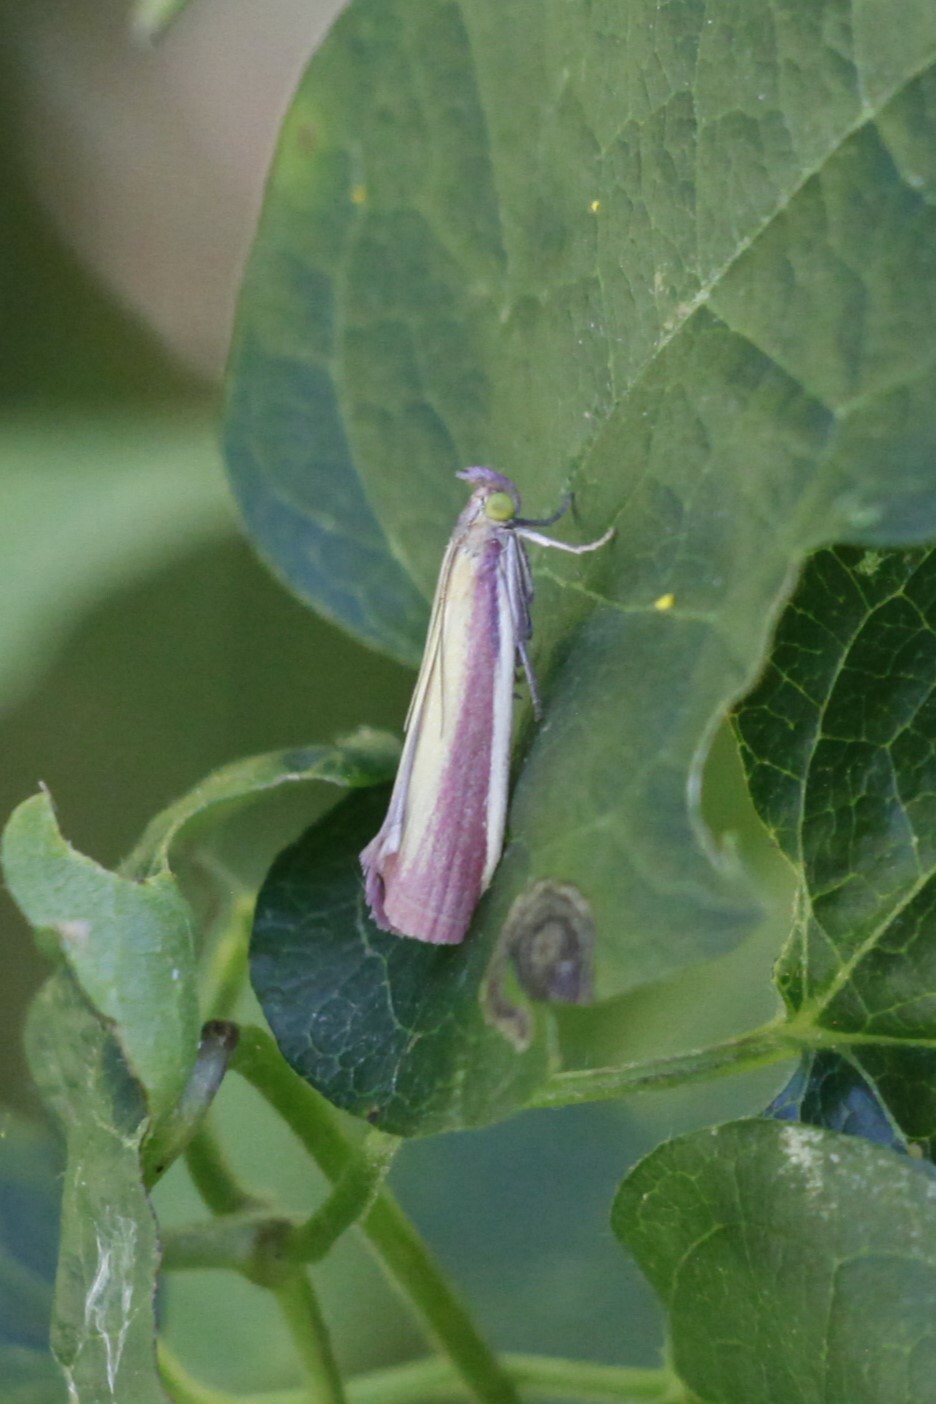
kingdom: Animalia
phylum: Arthropoda
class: Insecta
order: Lepidoptera
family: Pyralidae
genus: Oncocera
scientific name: Oncocera semirubella
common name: Rosy-striped knot-horn
